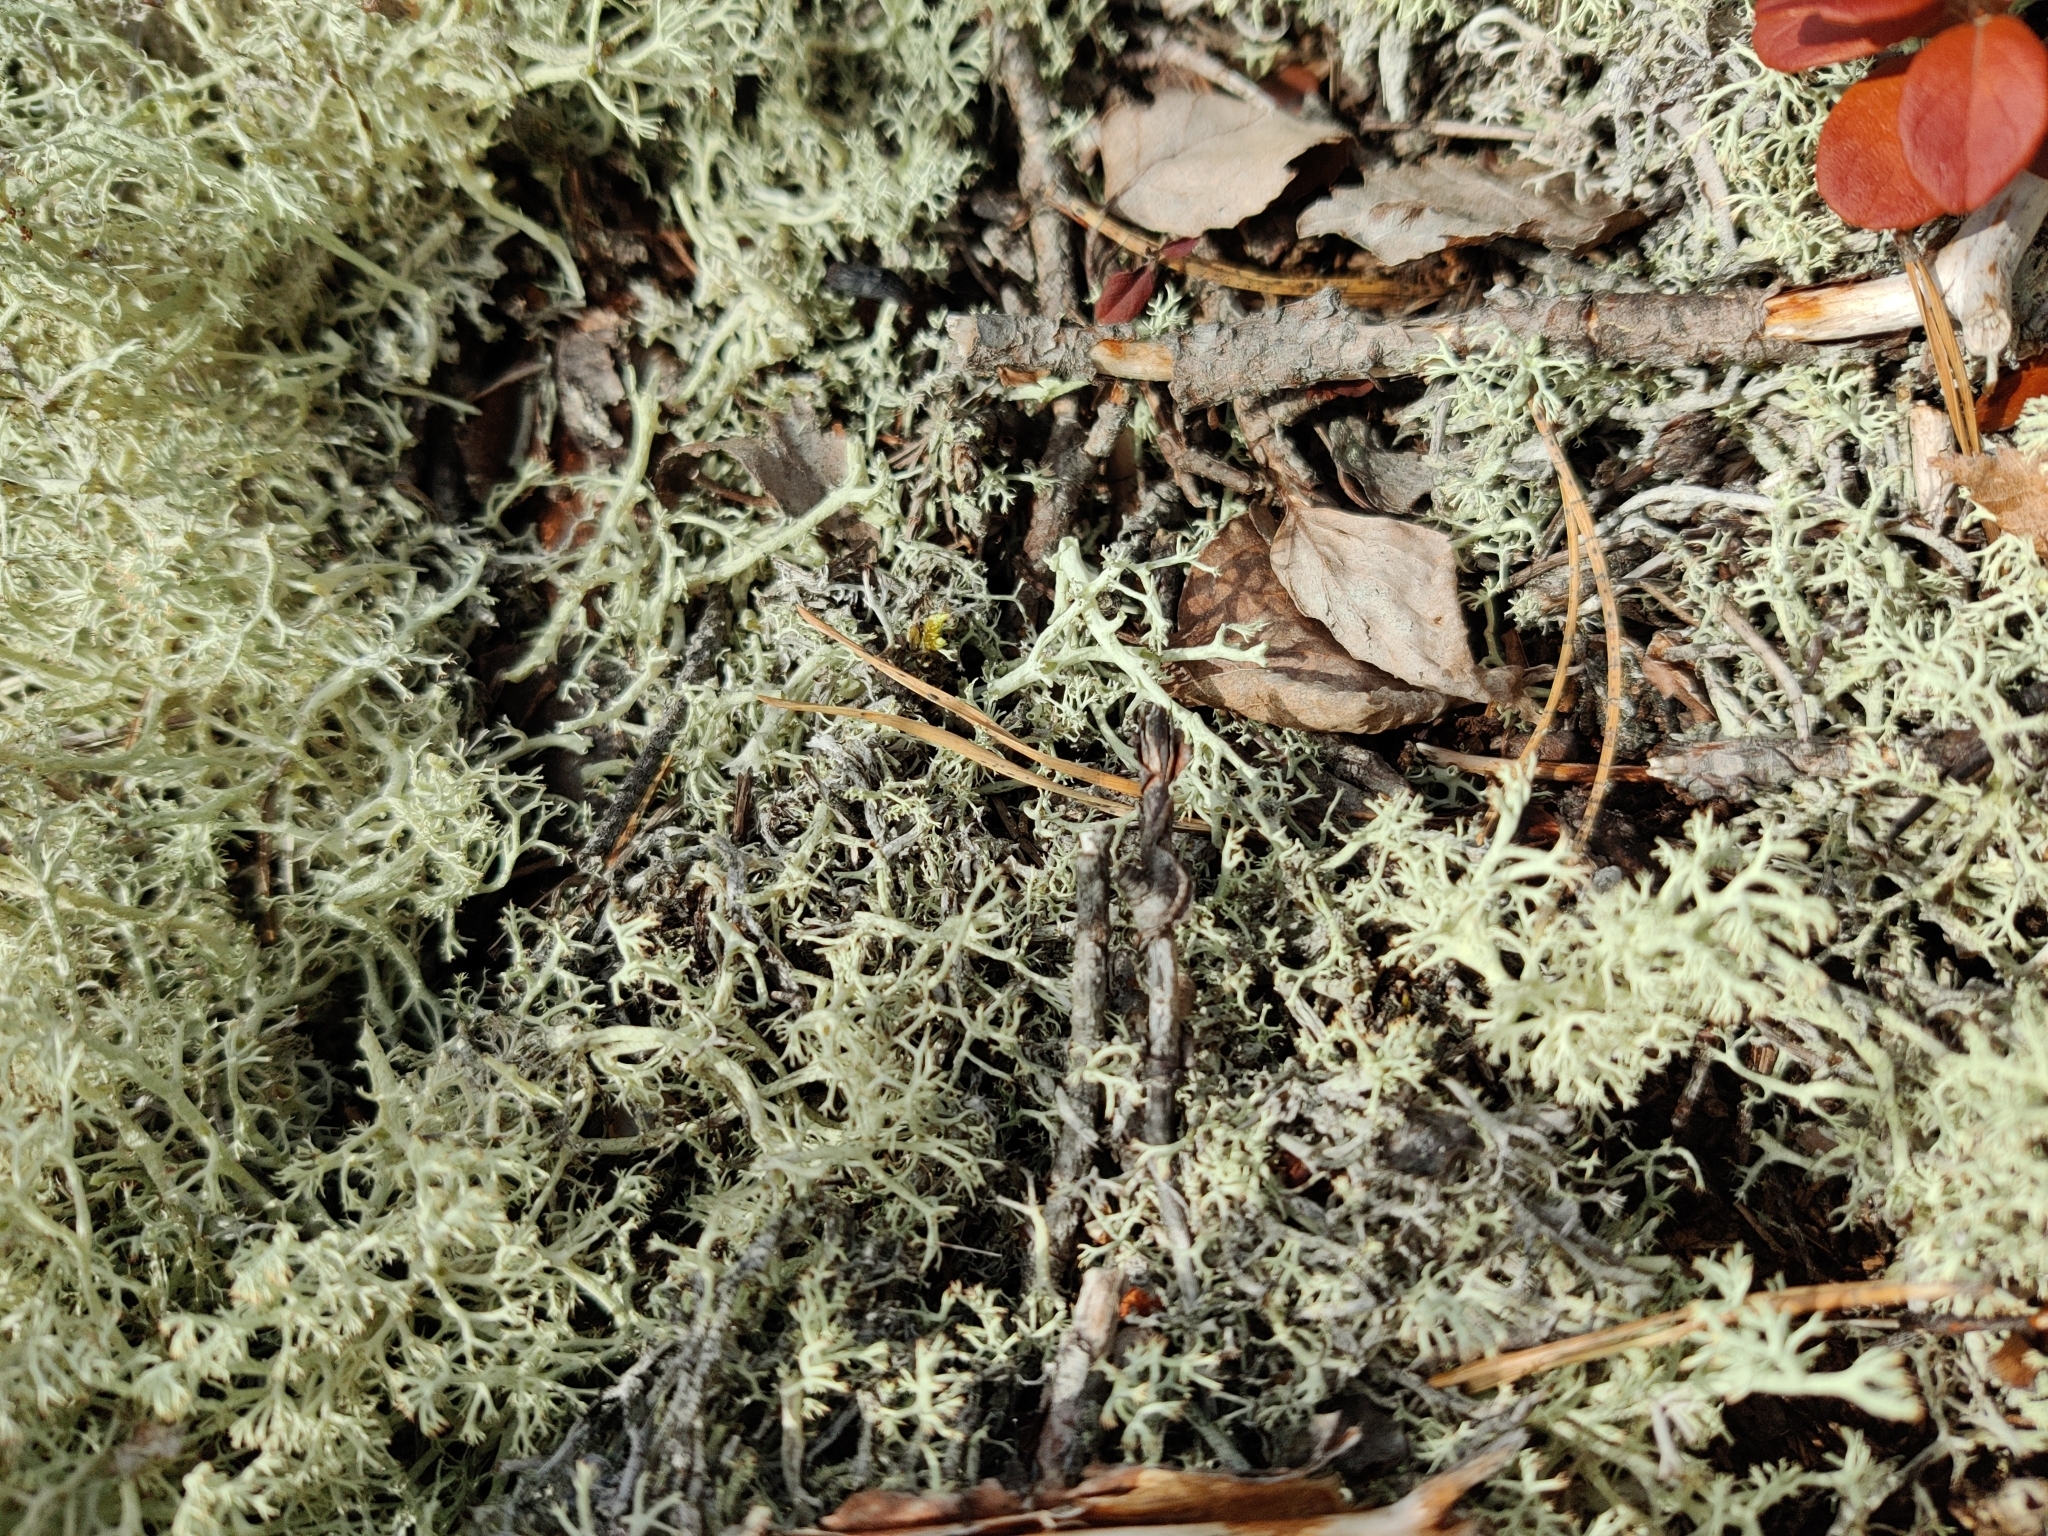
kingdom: Fungi
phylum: Ascomycota
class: Lecanoromycetes
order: Lecanorales
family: Cladoniaceae
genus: Cladonia
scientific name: Cladonia arbuscula
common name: Reindeer lichen
